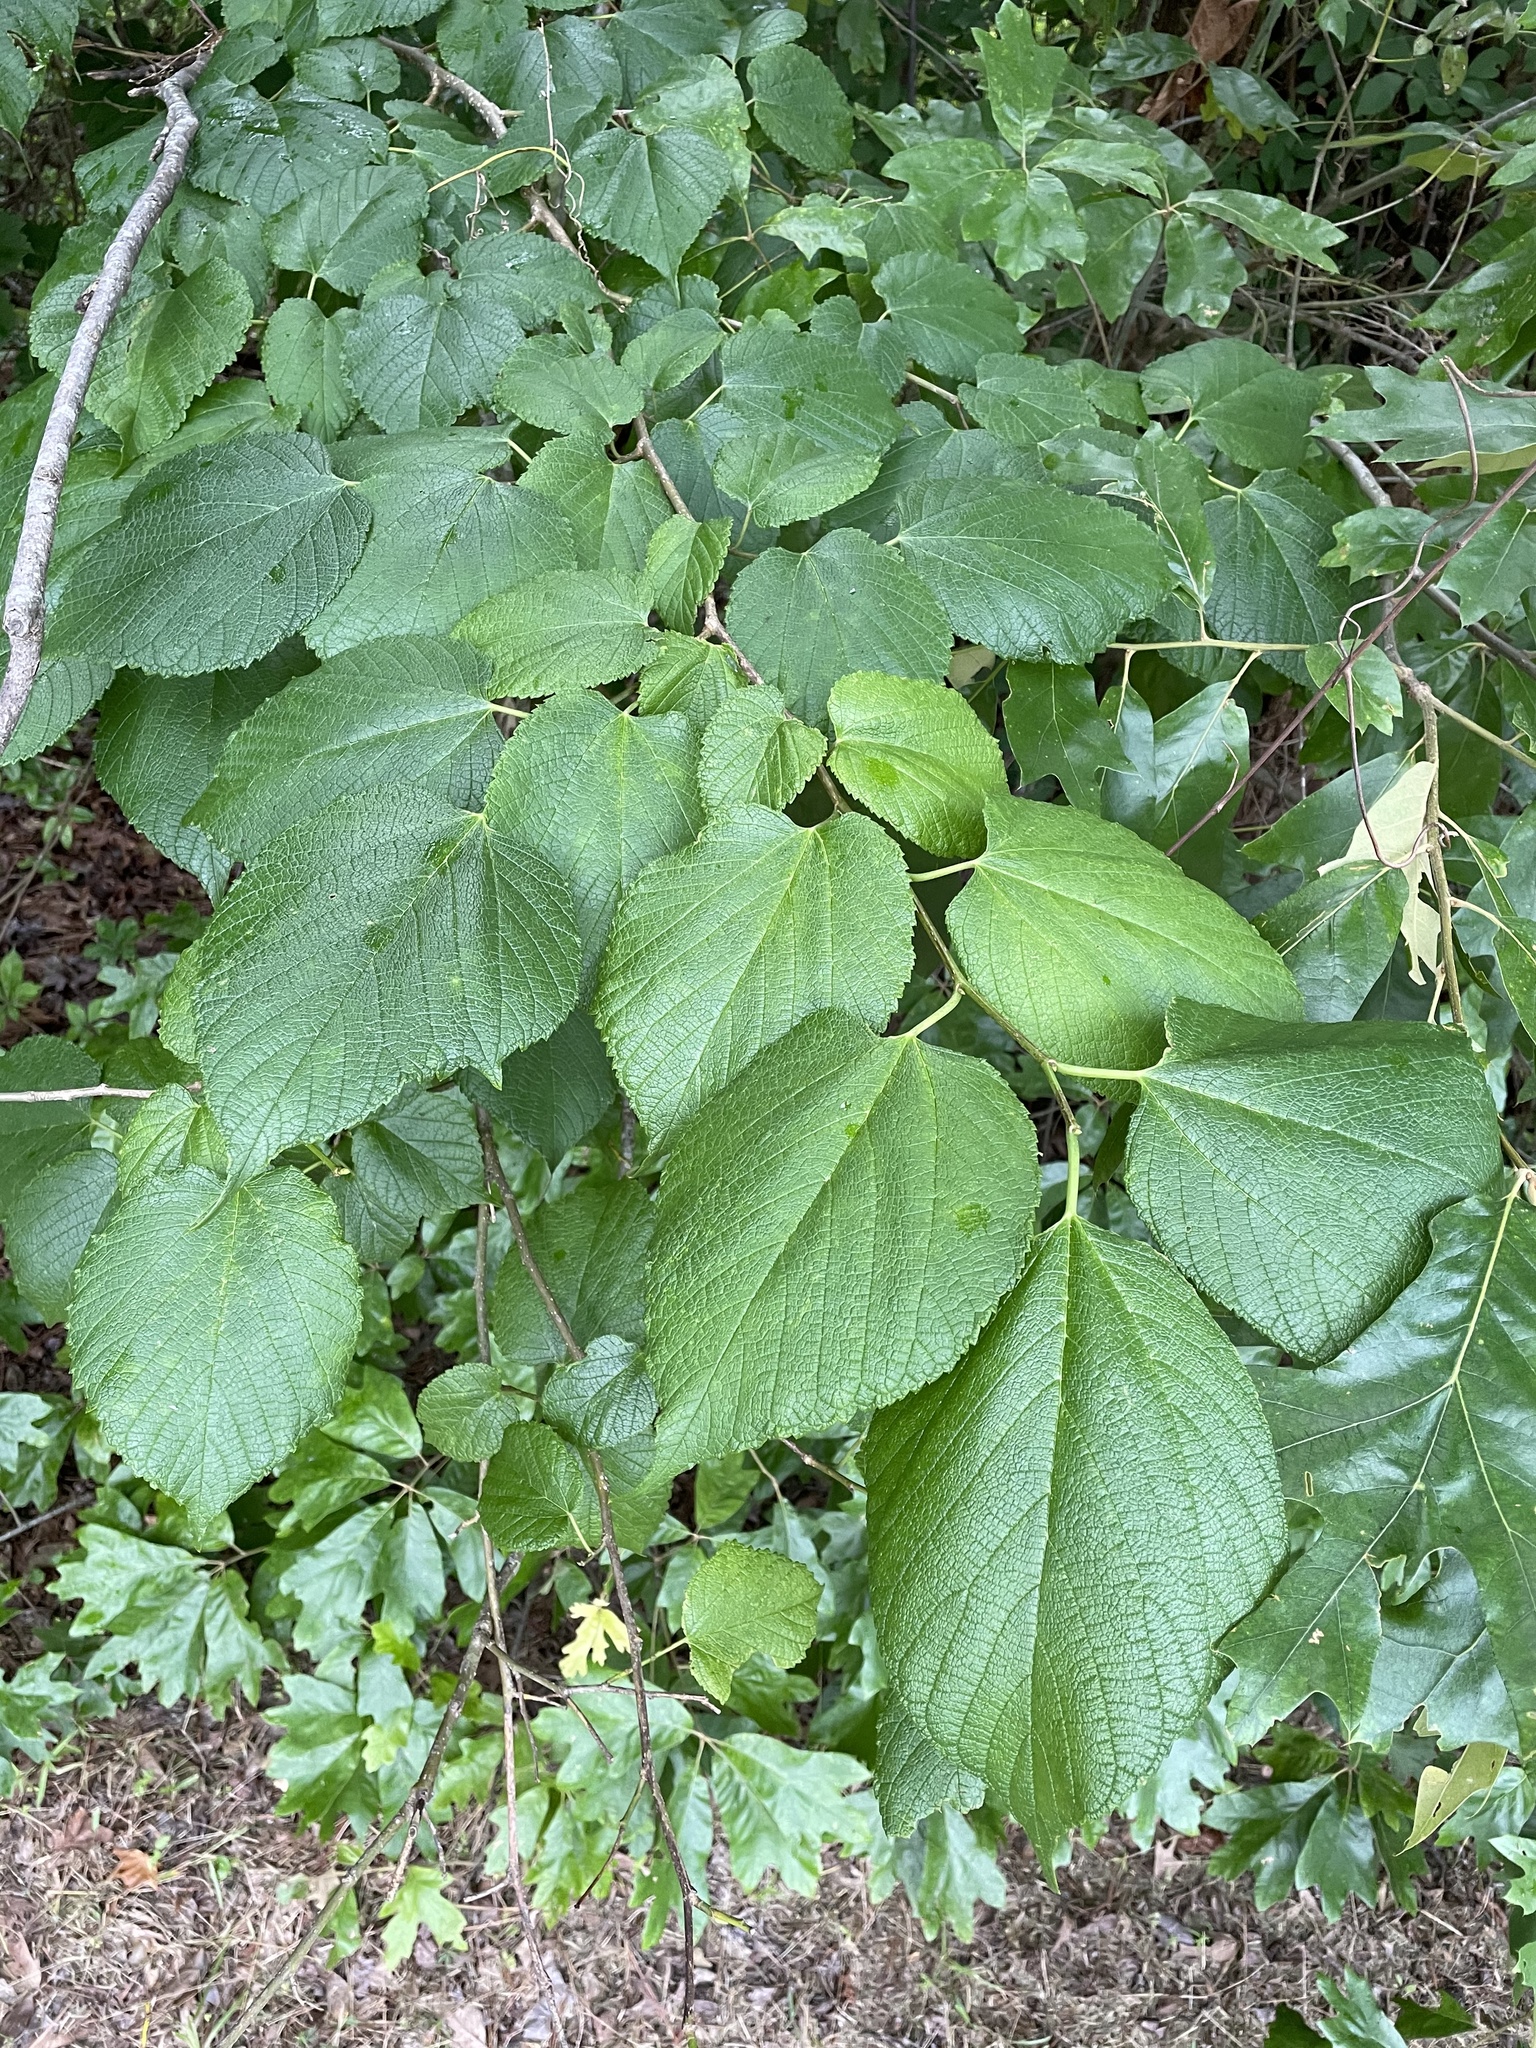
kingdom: Plantae
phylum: Tracheophyta
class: Magnoliopsida
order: Rosales
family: Moraceae
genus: Morus
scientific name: Morus rubra
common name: Red mulberry
